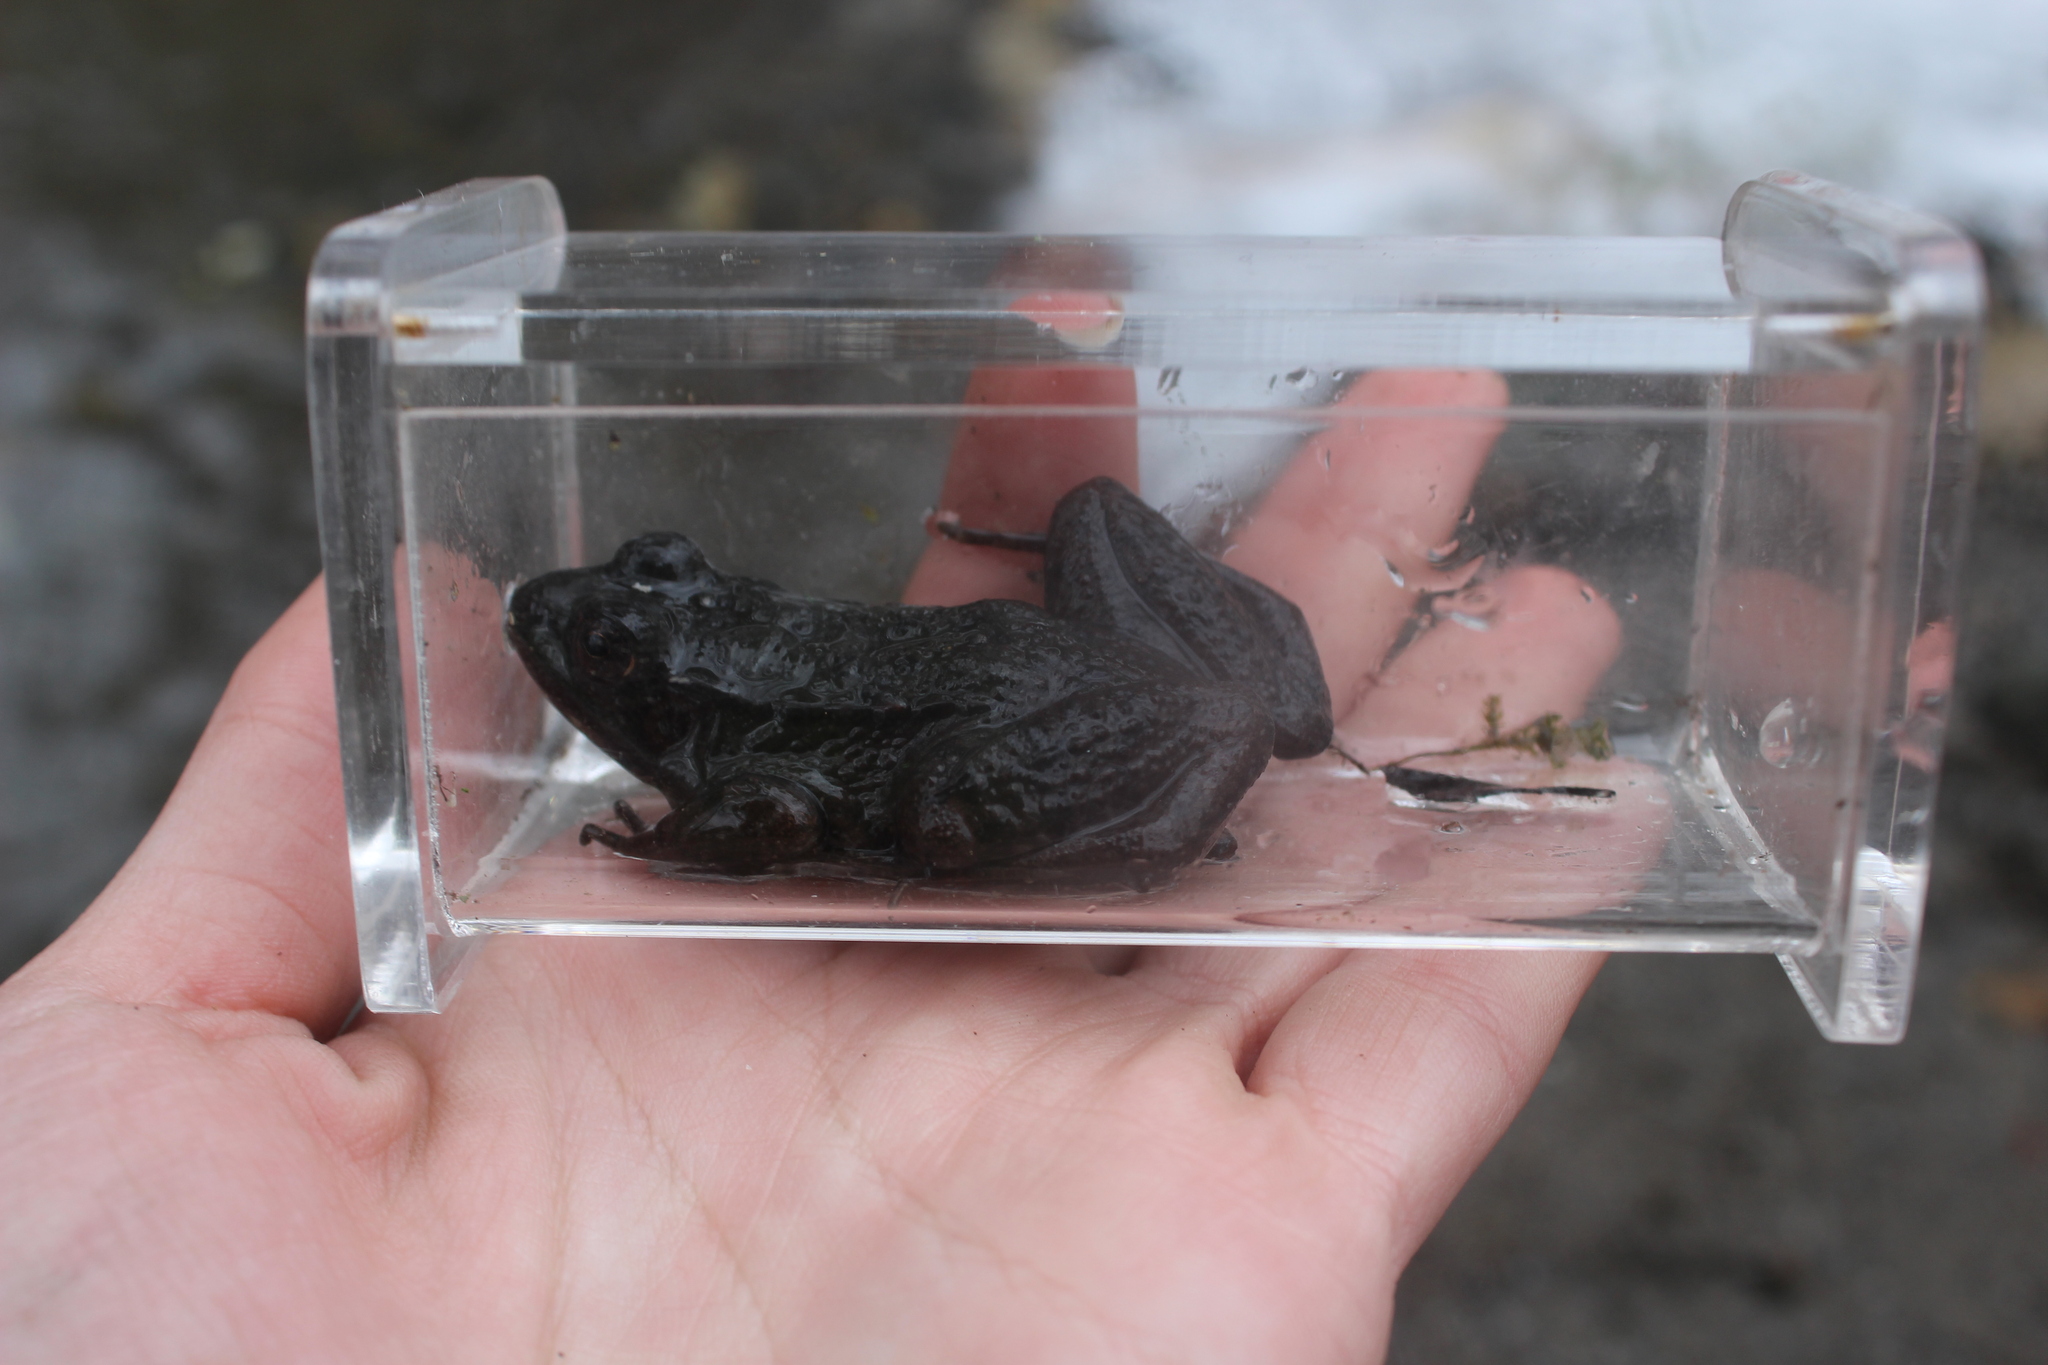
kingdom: Animalia
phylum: Chordata
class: Amphibia
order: Anura
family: Ranidae
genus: Lithobates
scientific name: Lithobates clamitans
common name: Green frog
